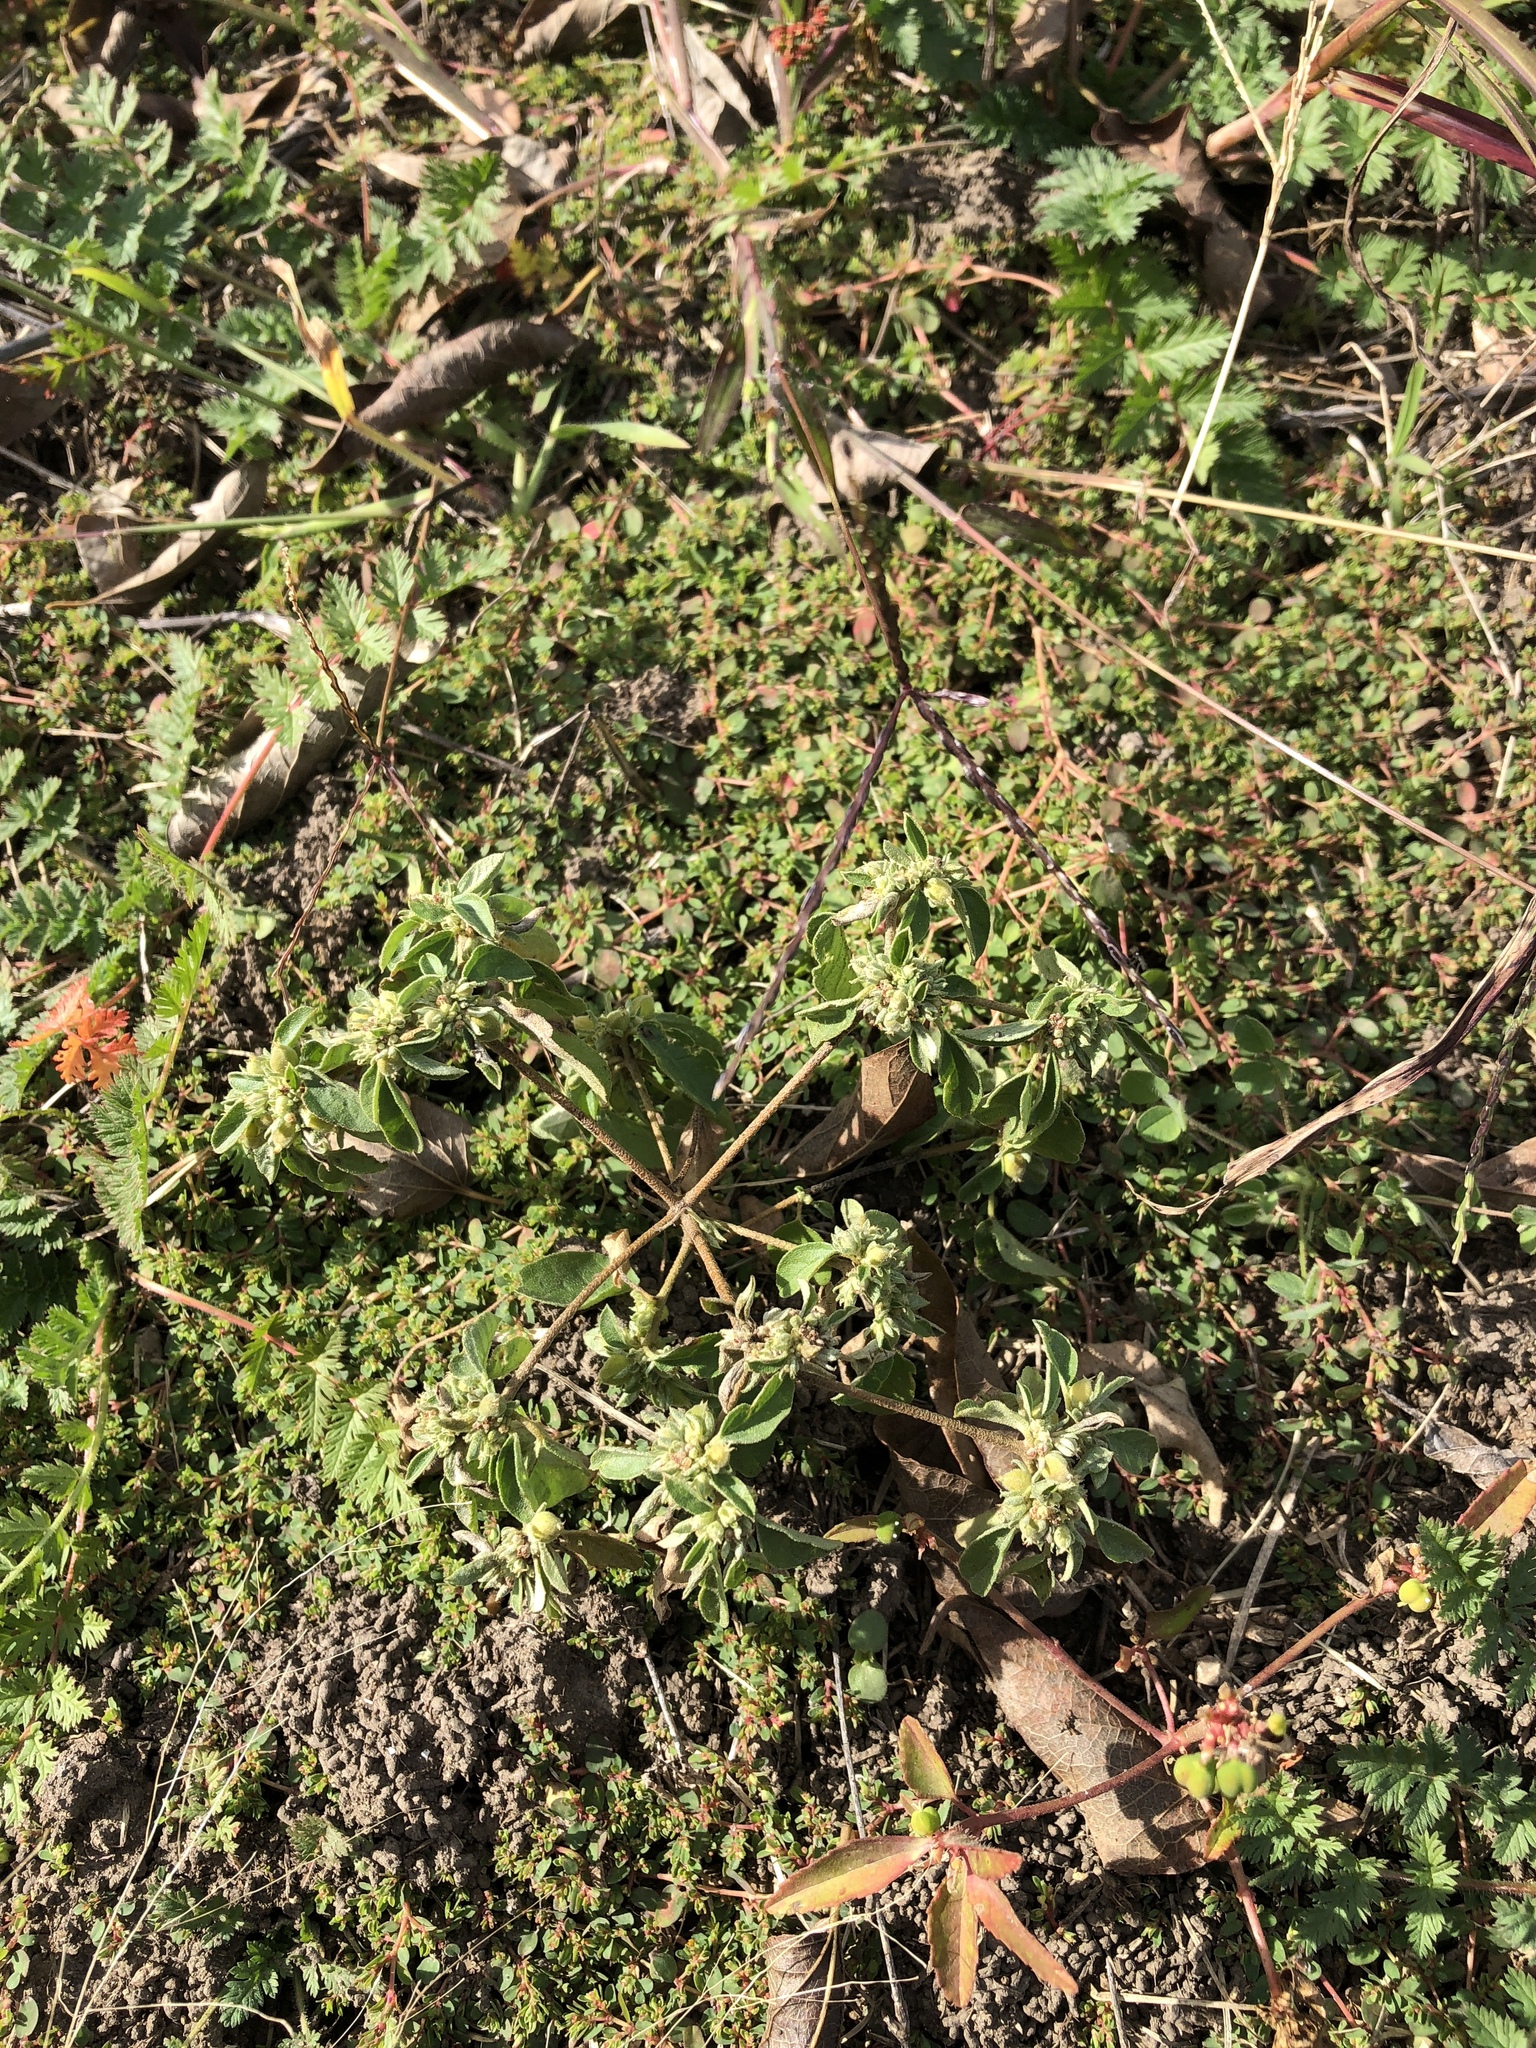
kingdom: Plantae
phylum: Tracheophyta
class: Magnoliopsida
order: Malpighiales
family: Euphorbiaceae
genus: Croton
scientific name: Croton monanthogynus
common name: One-seed croton
